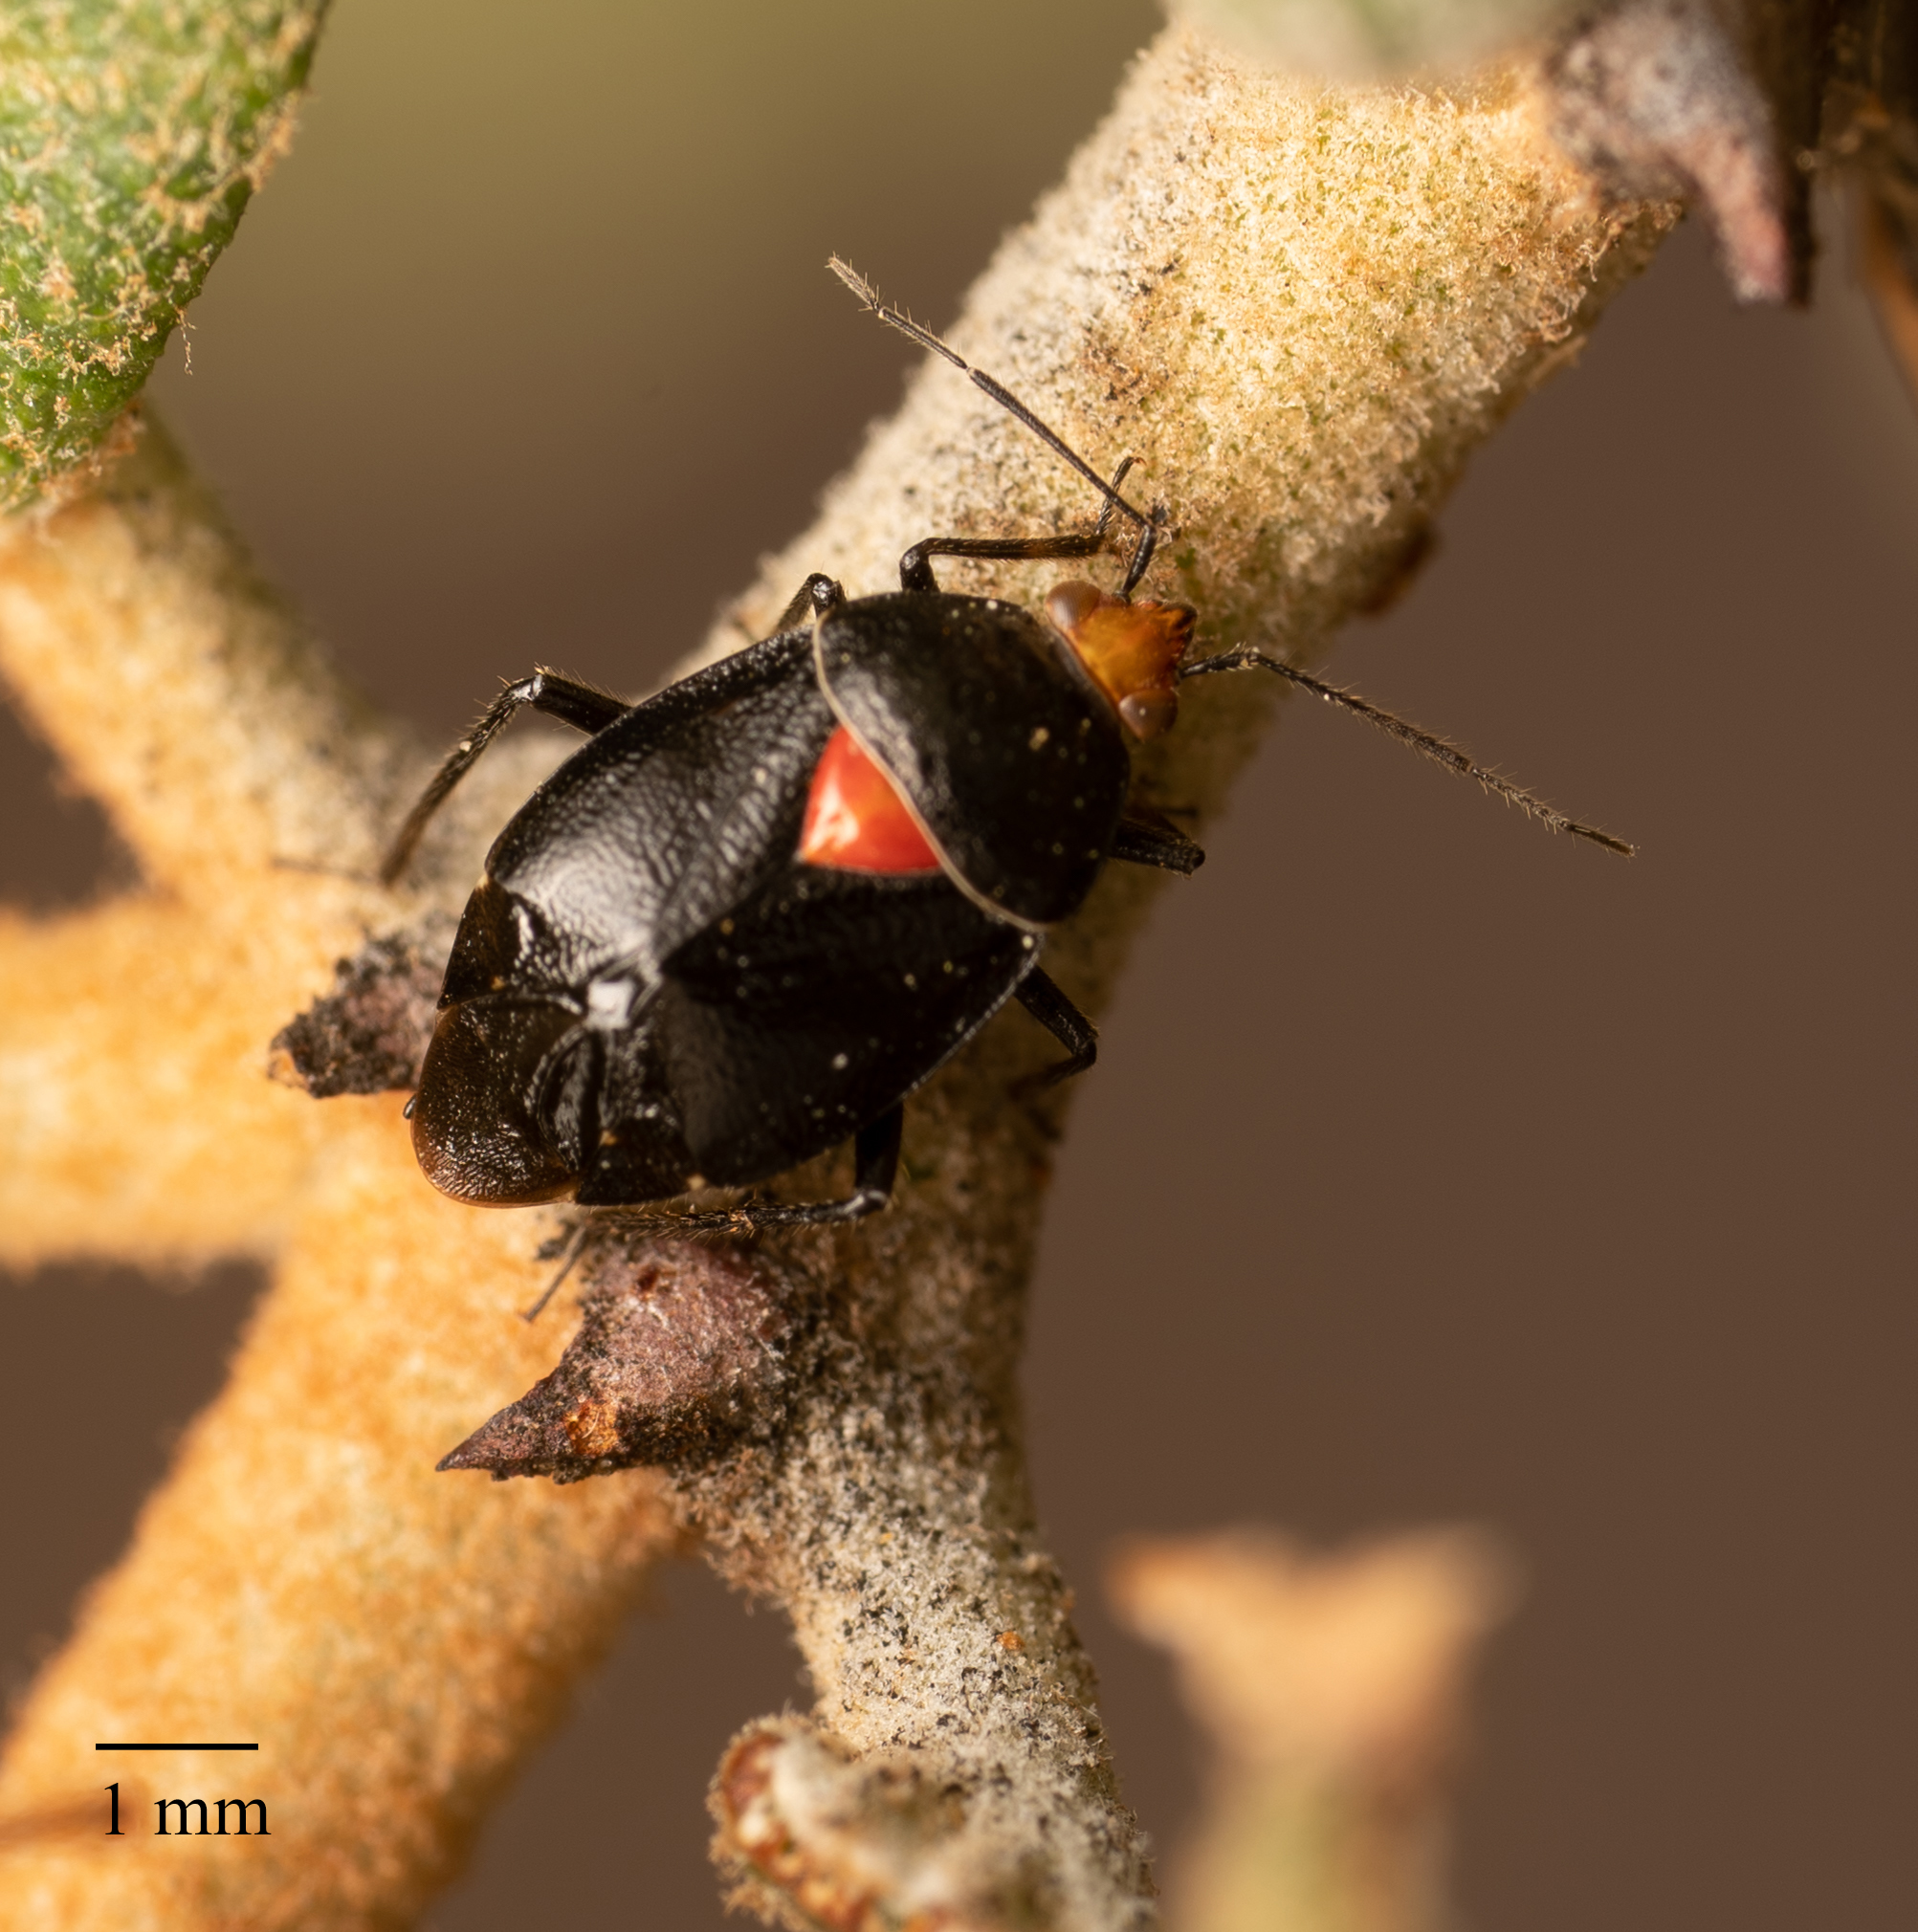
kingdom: Animalia
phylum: Arthropoda
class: Insecta
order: Hemiptera
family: Miridae
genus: Deraeocoris
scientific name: Deraeocoris fulgidus
